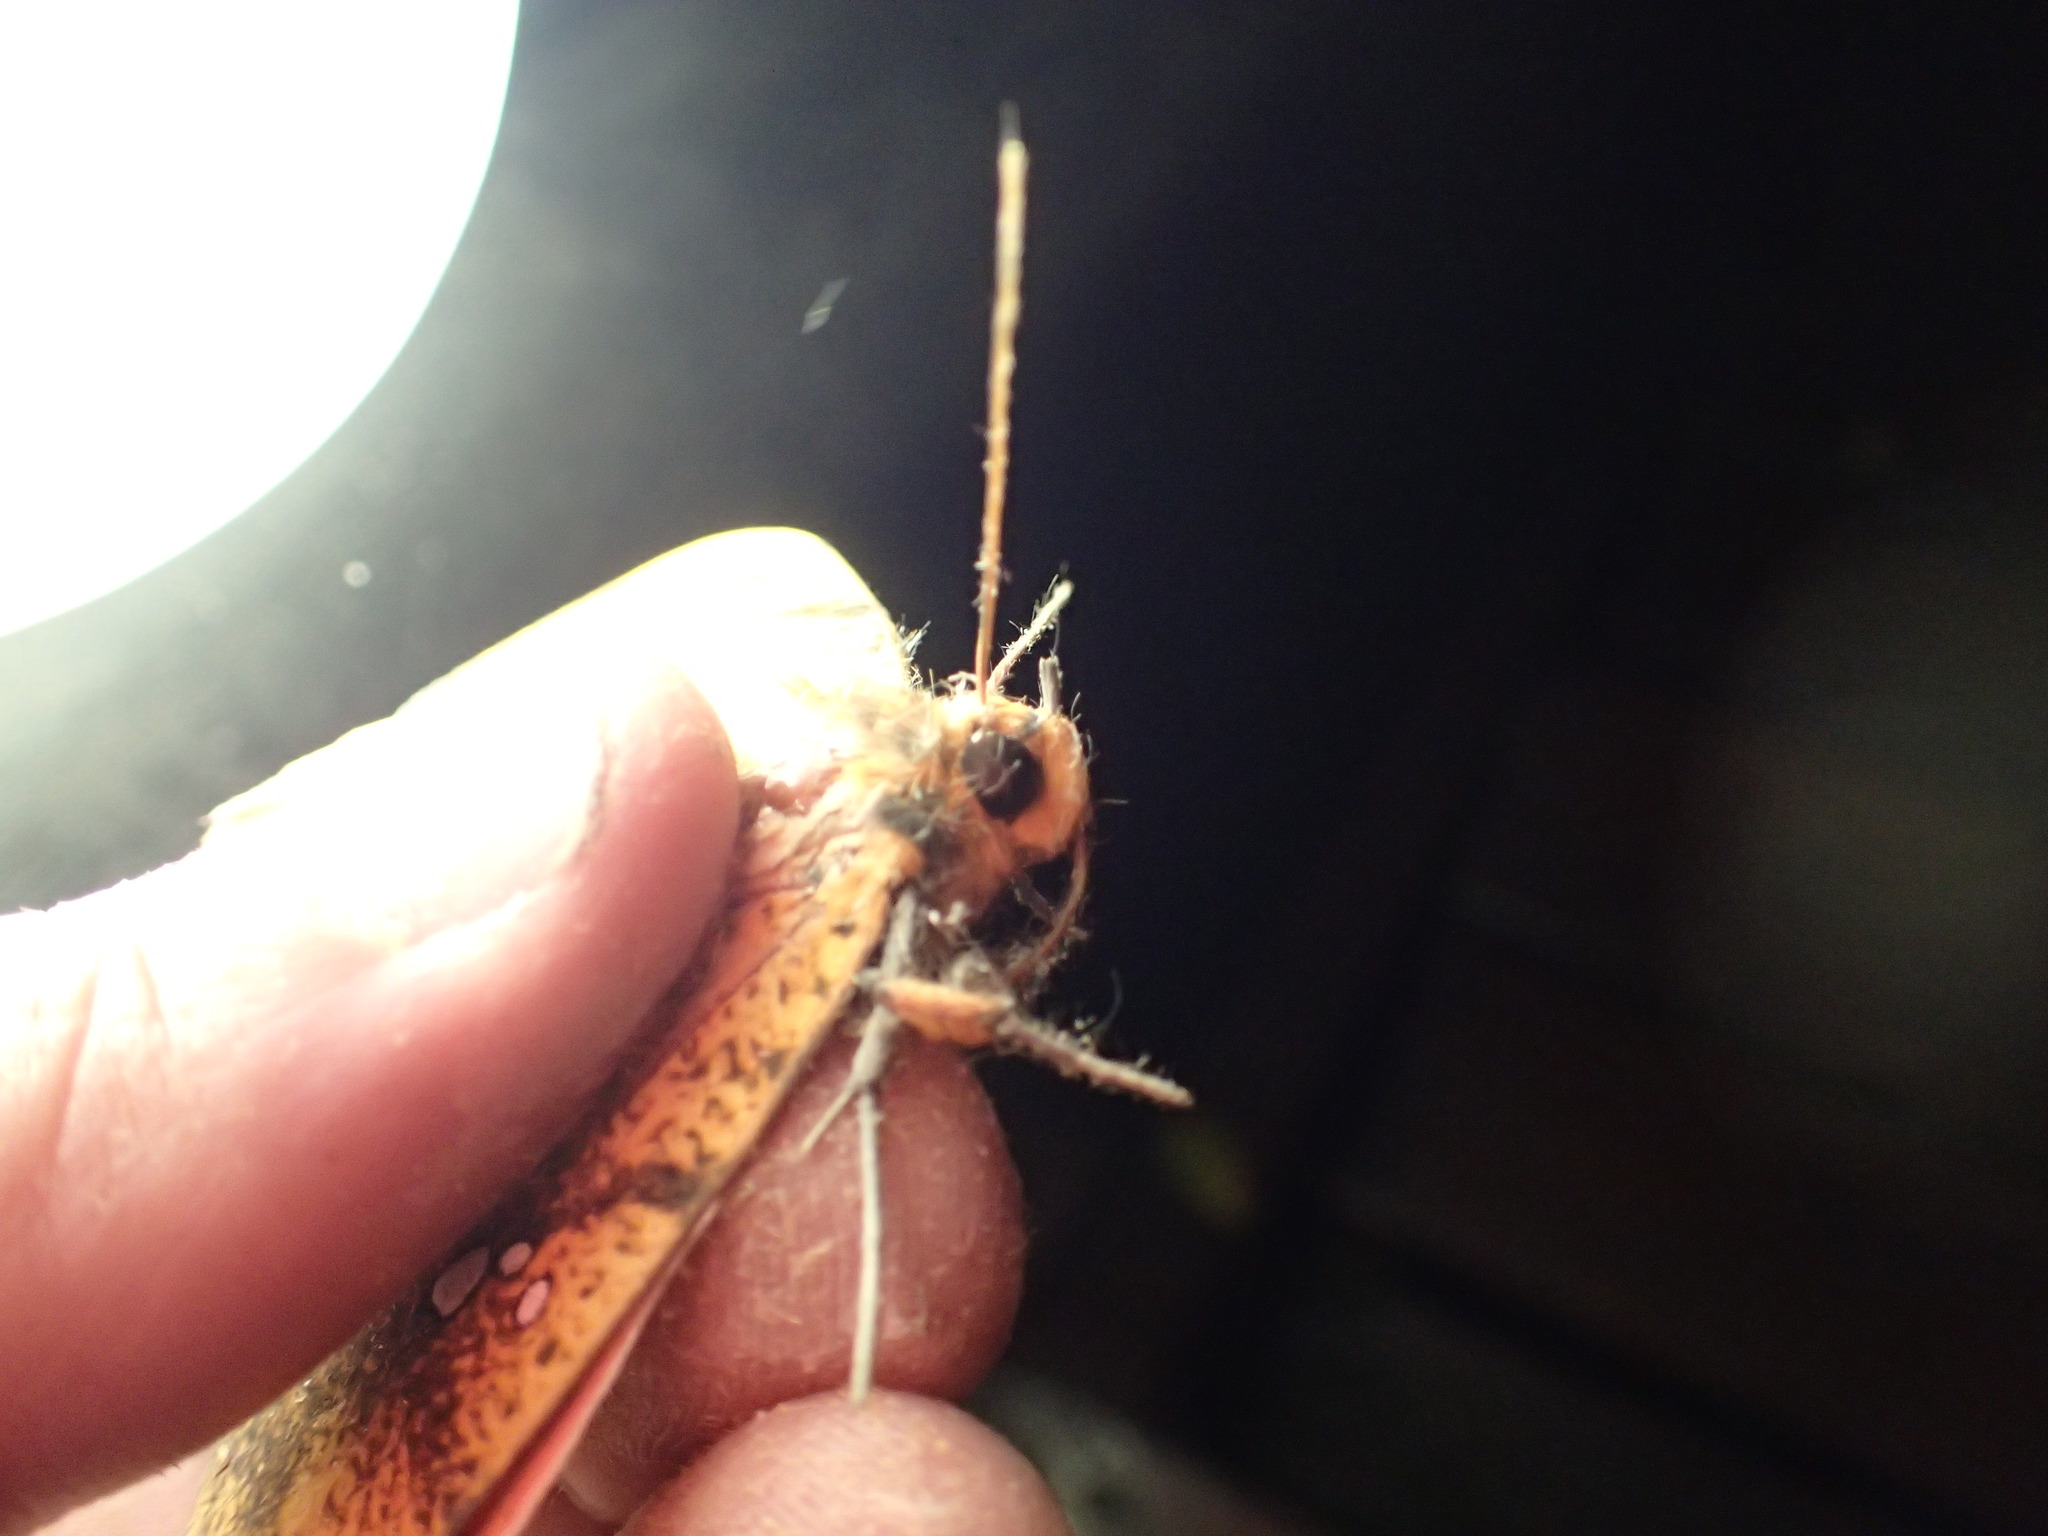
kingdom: Animalia
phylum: Arthropoda
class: Insecta
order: Lepidoptera
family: Erebidae
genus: Miniodes
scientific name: Miniodes discolor
